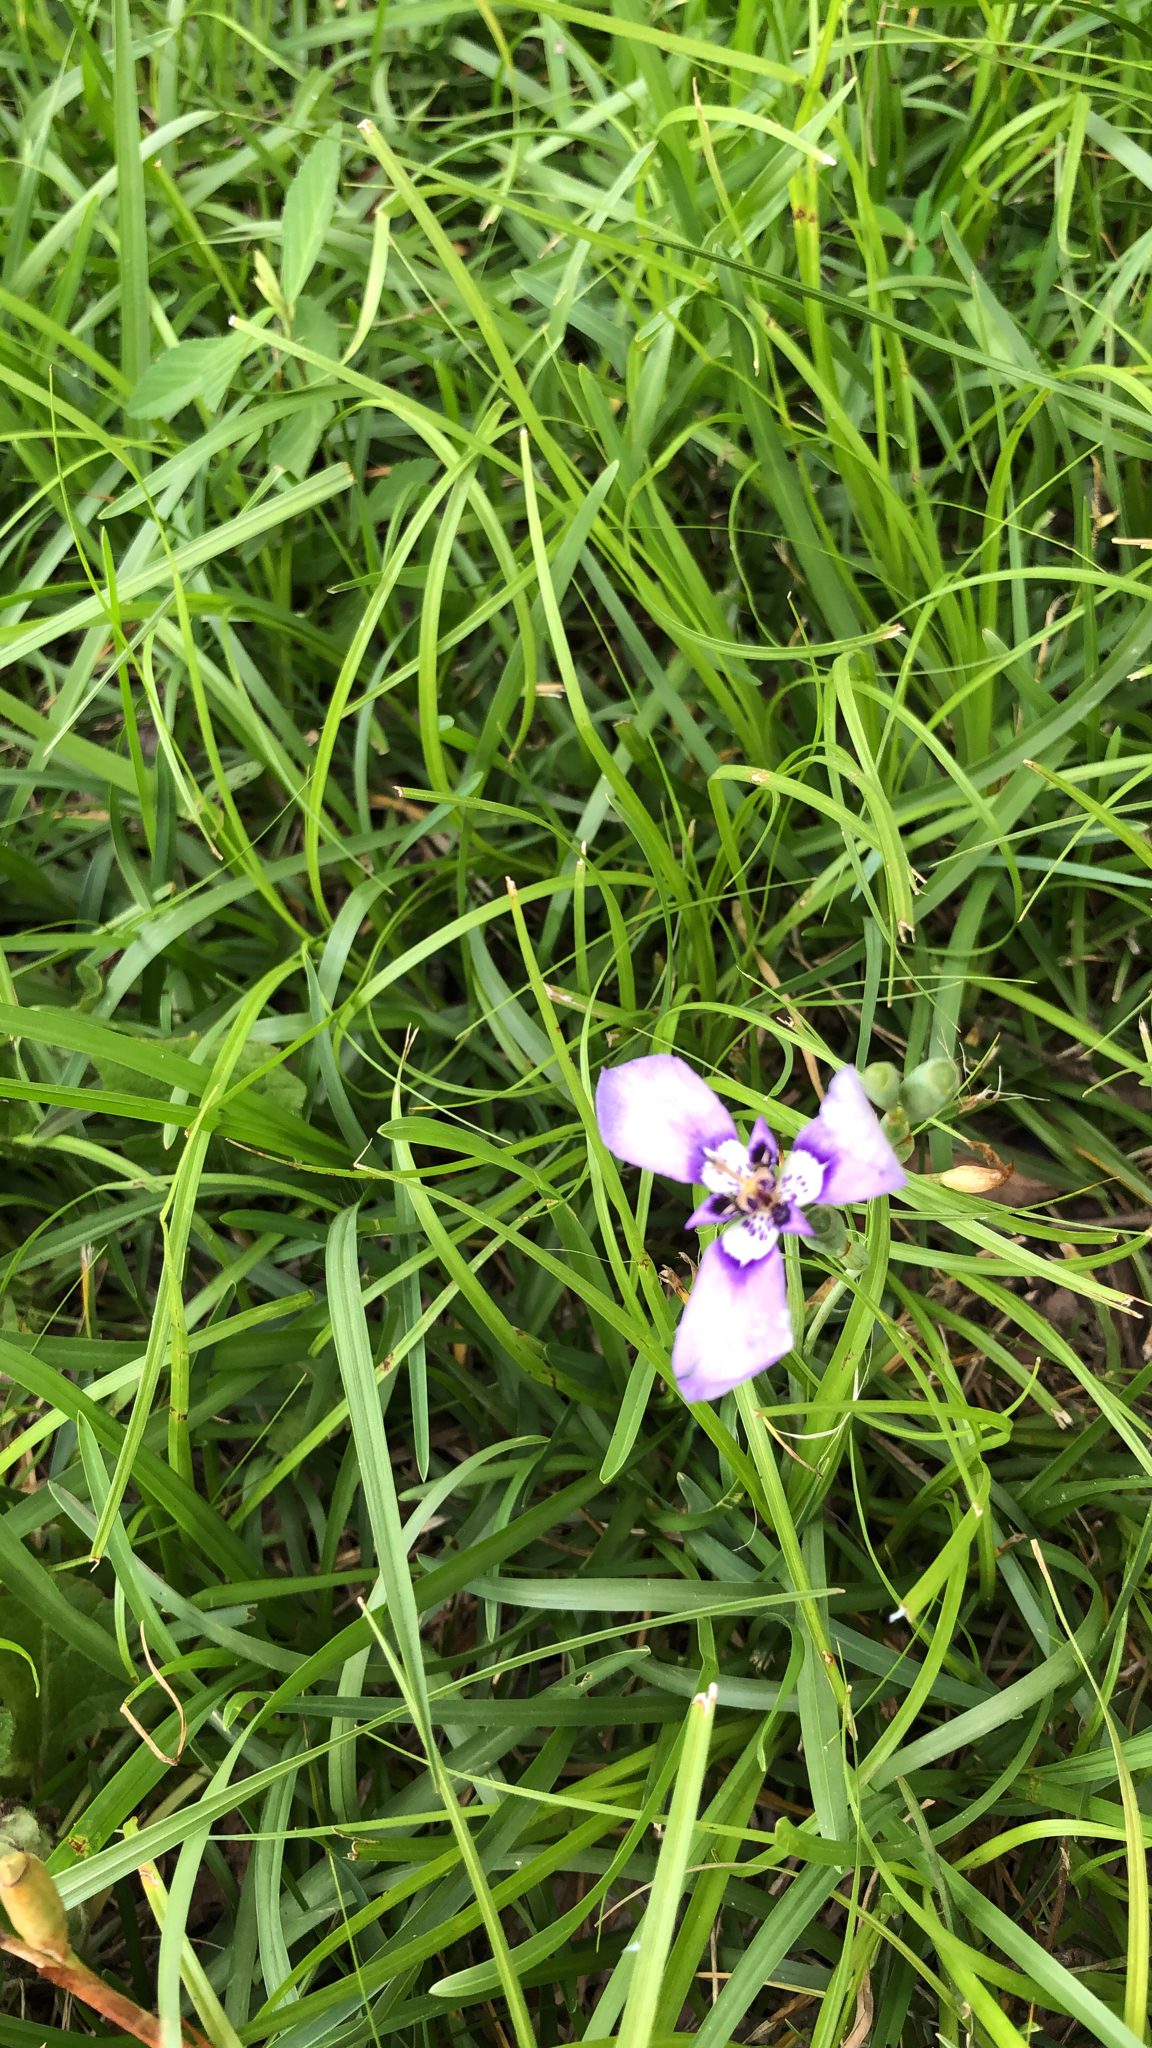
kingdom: Plantae
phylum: Tracheophyta
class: Liliopsida
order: Asparagales
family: Iridaceae
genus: Herbertia
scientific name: Herbertia lahue
